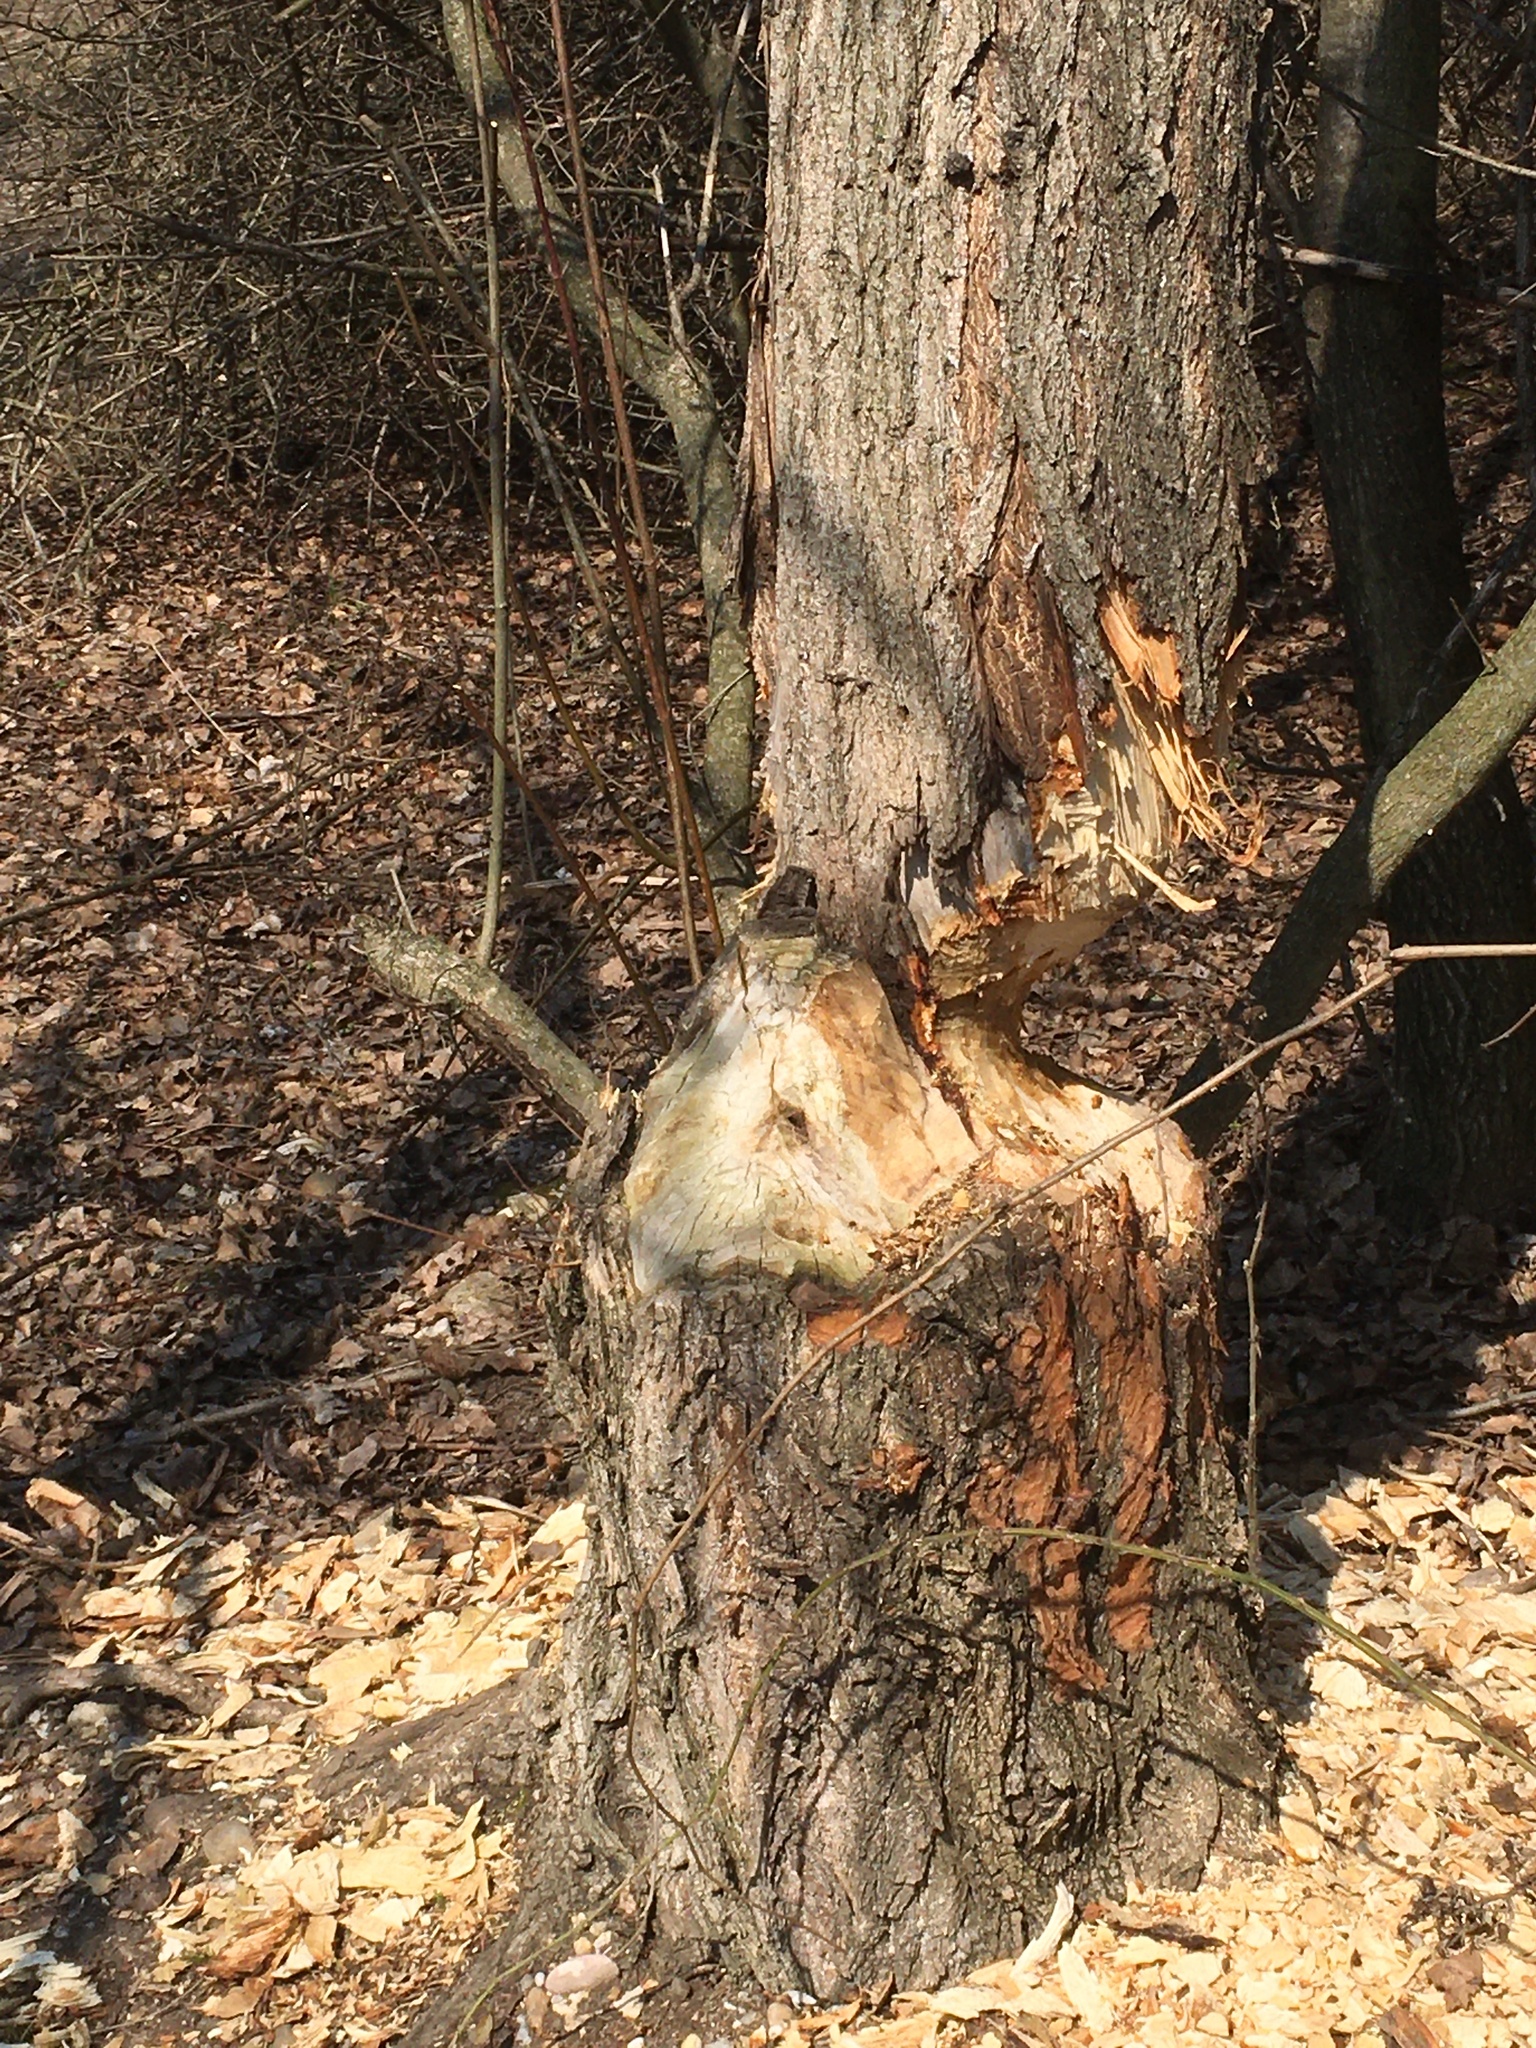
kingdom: Animalia
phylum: Chordata
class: Mammalia
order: Rodentia
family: Castoridae
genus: Castor
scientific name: Castor fiber
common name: Eurasian beaver
